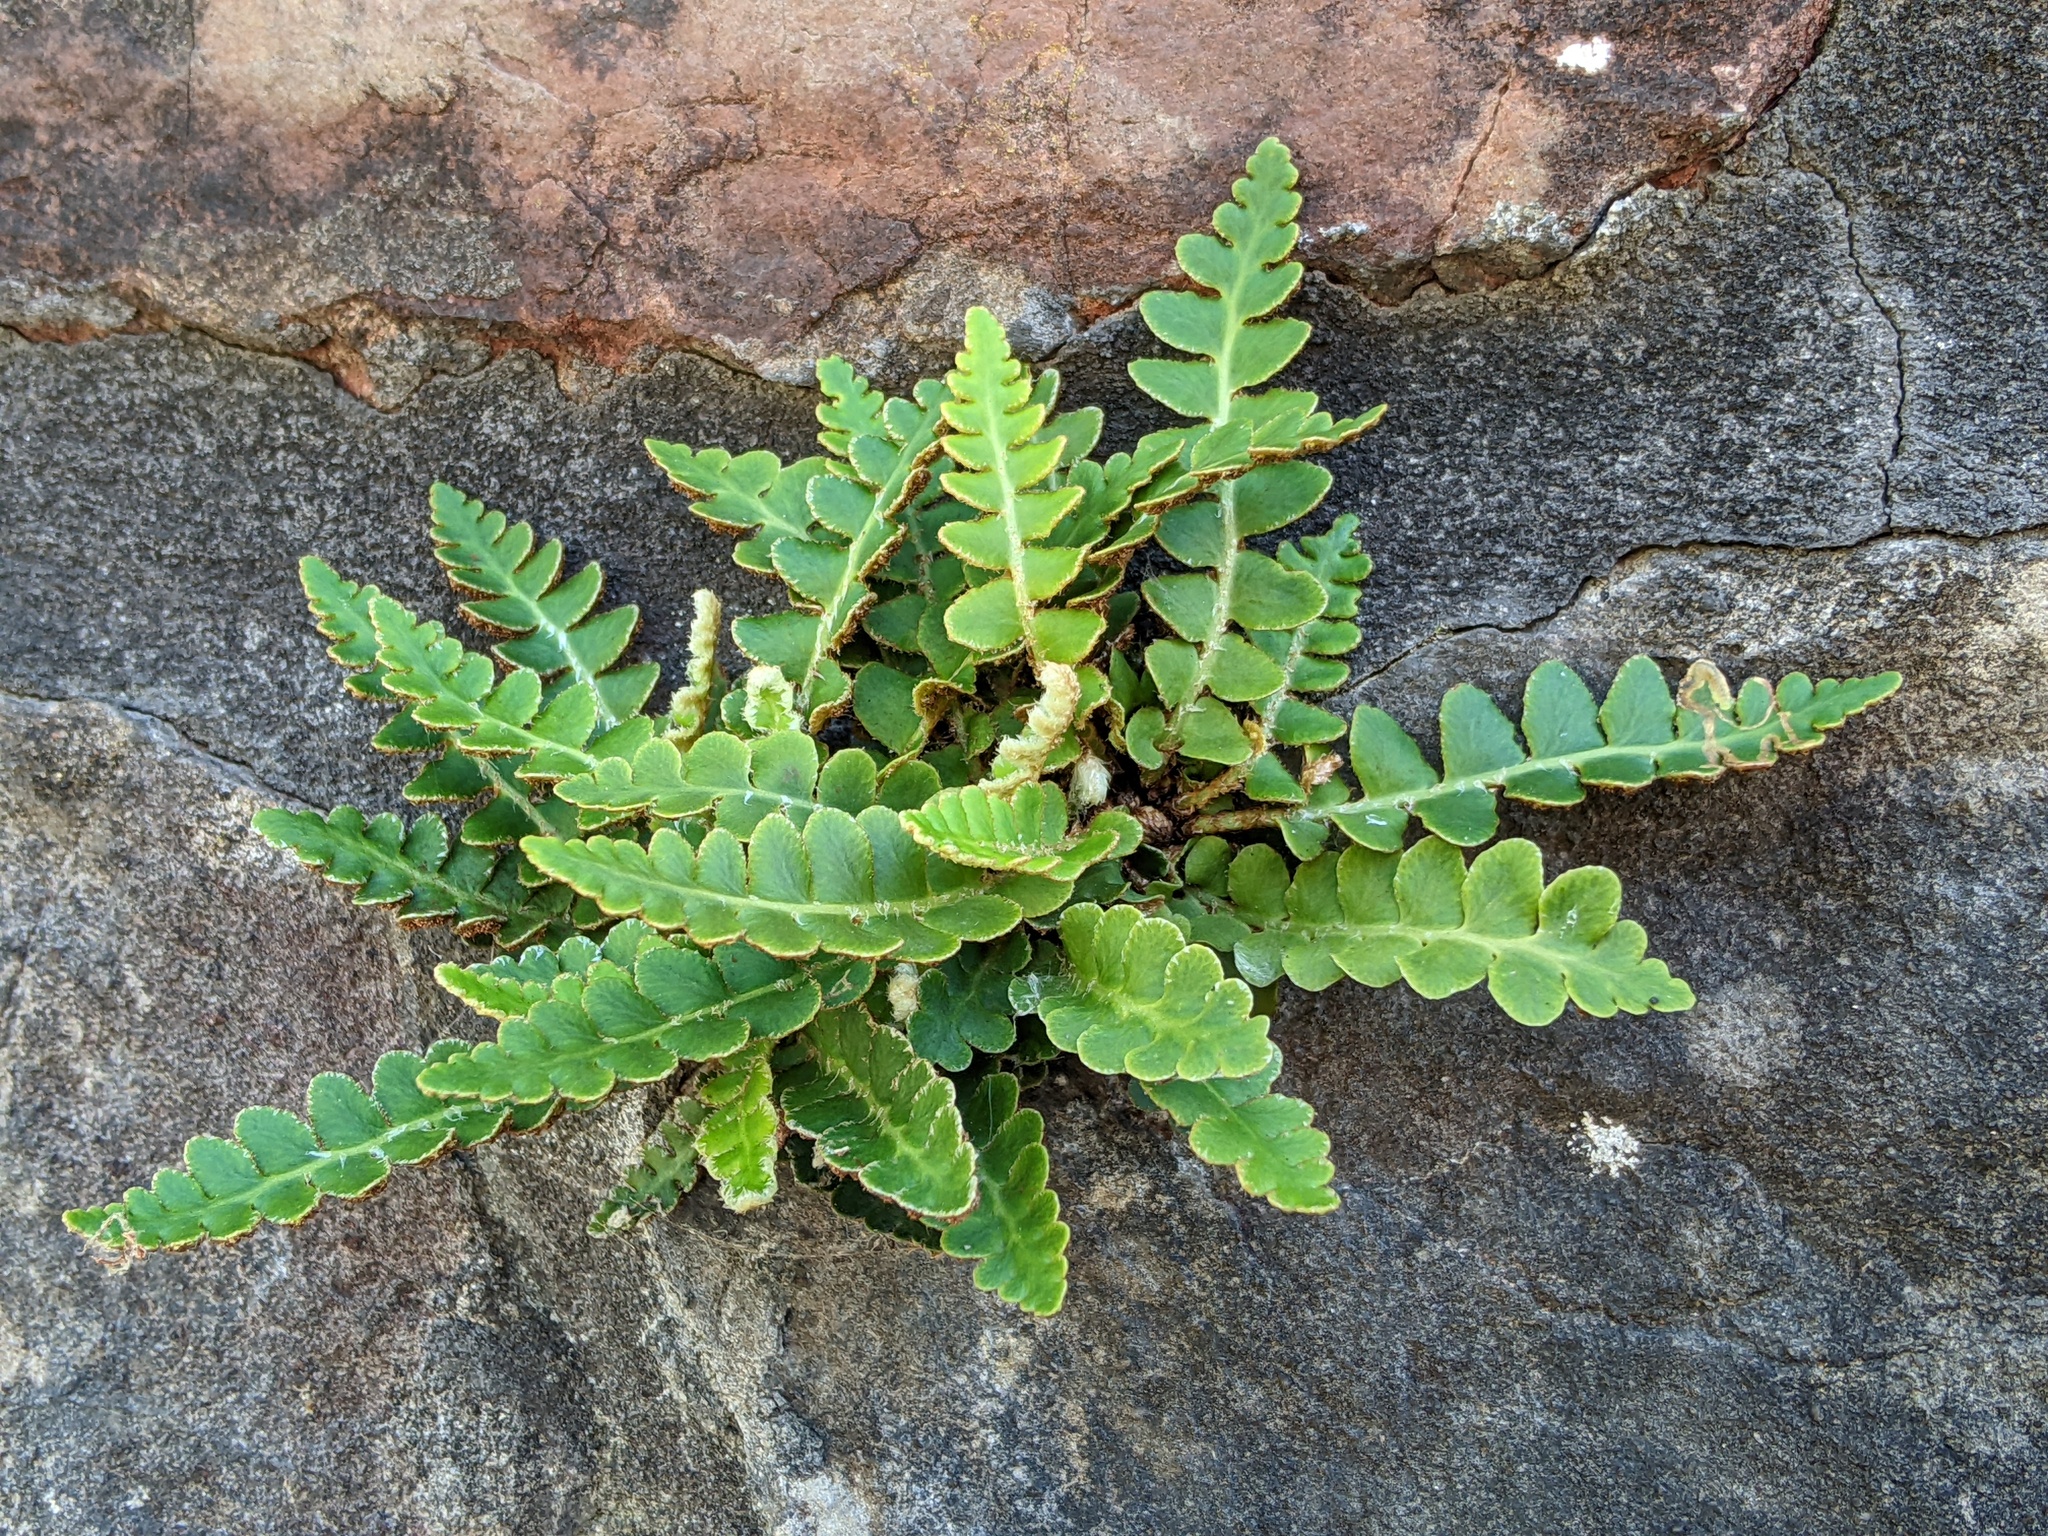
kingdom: Plantae
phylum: Tracheophyta
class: Polypodiopsida
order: Polypodiales
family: Aspleniaceae
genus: Asplenium
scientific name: Asplenium ceterach
